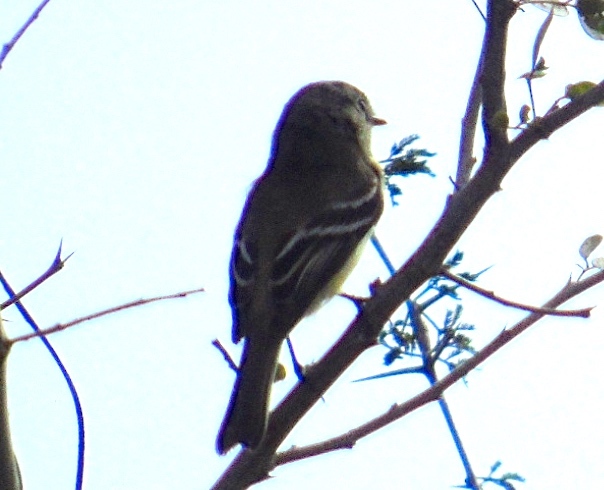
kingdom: Animalia
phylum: Chordata
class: Aves
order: Passeriformes
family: Tyrannidae
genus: Empidonax
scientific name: Empidonax
